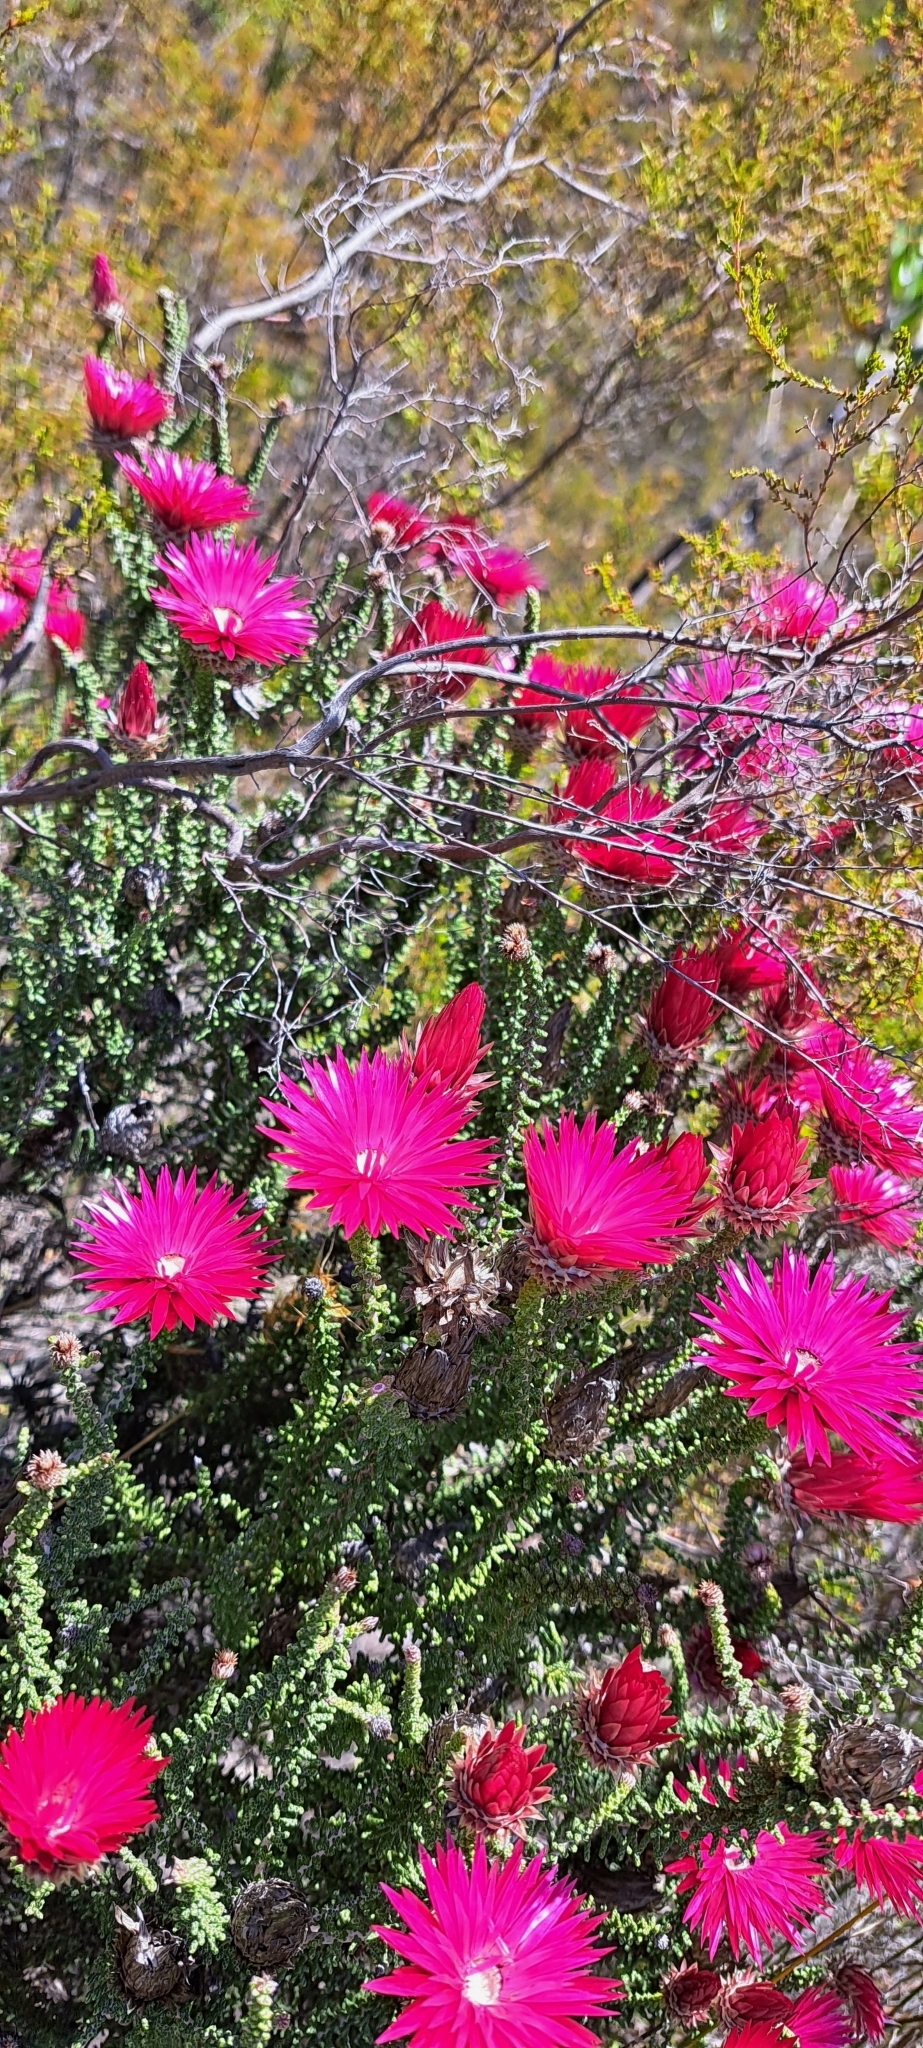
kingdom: Plantae
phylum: Tracheophyta
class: Magnoliopsida
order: Asterales
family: Asteraceae
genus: Phaenocoma
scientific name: Phaenocoma prolifera
